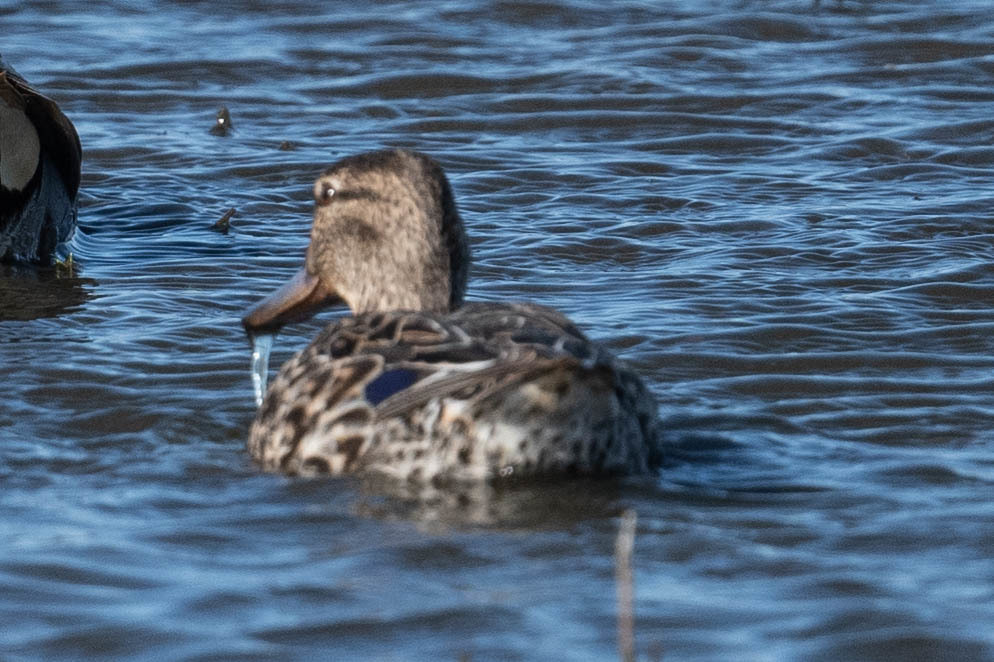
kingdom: Animalia
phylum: Chordata
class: Aves
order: Anseriformes
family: Anatidae
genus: Spatula
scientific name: Spatula clypeata
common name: Northern shoveler
